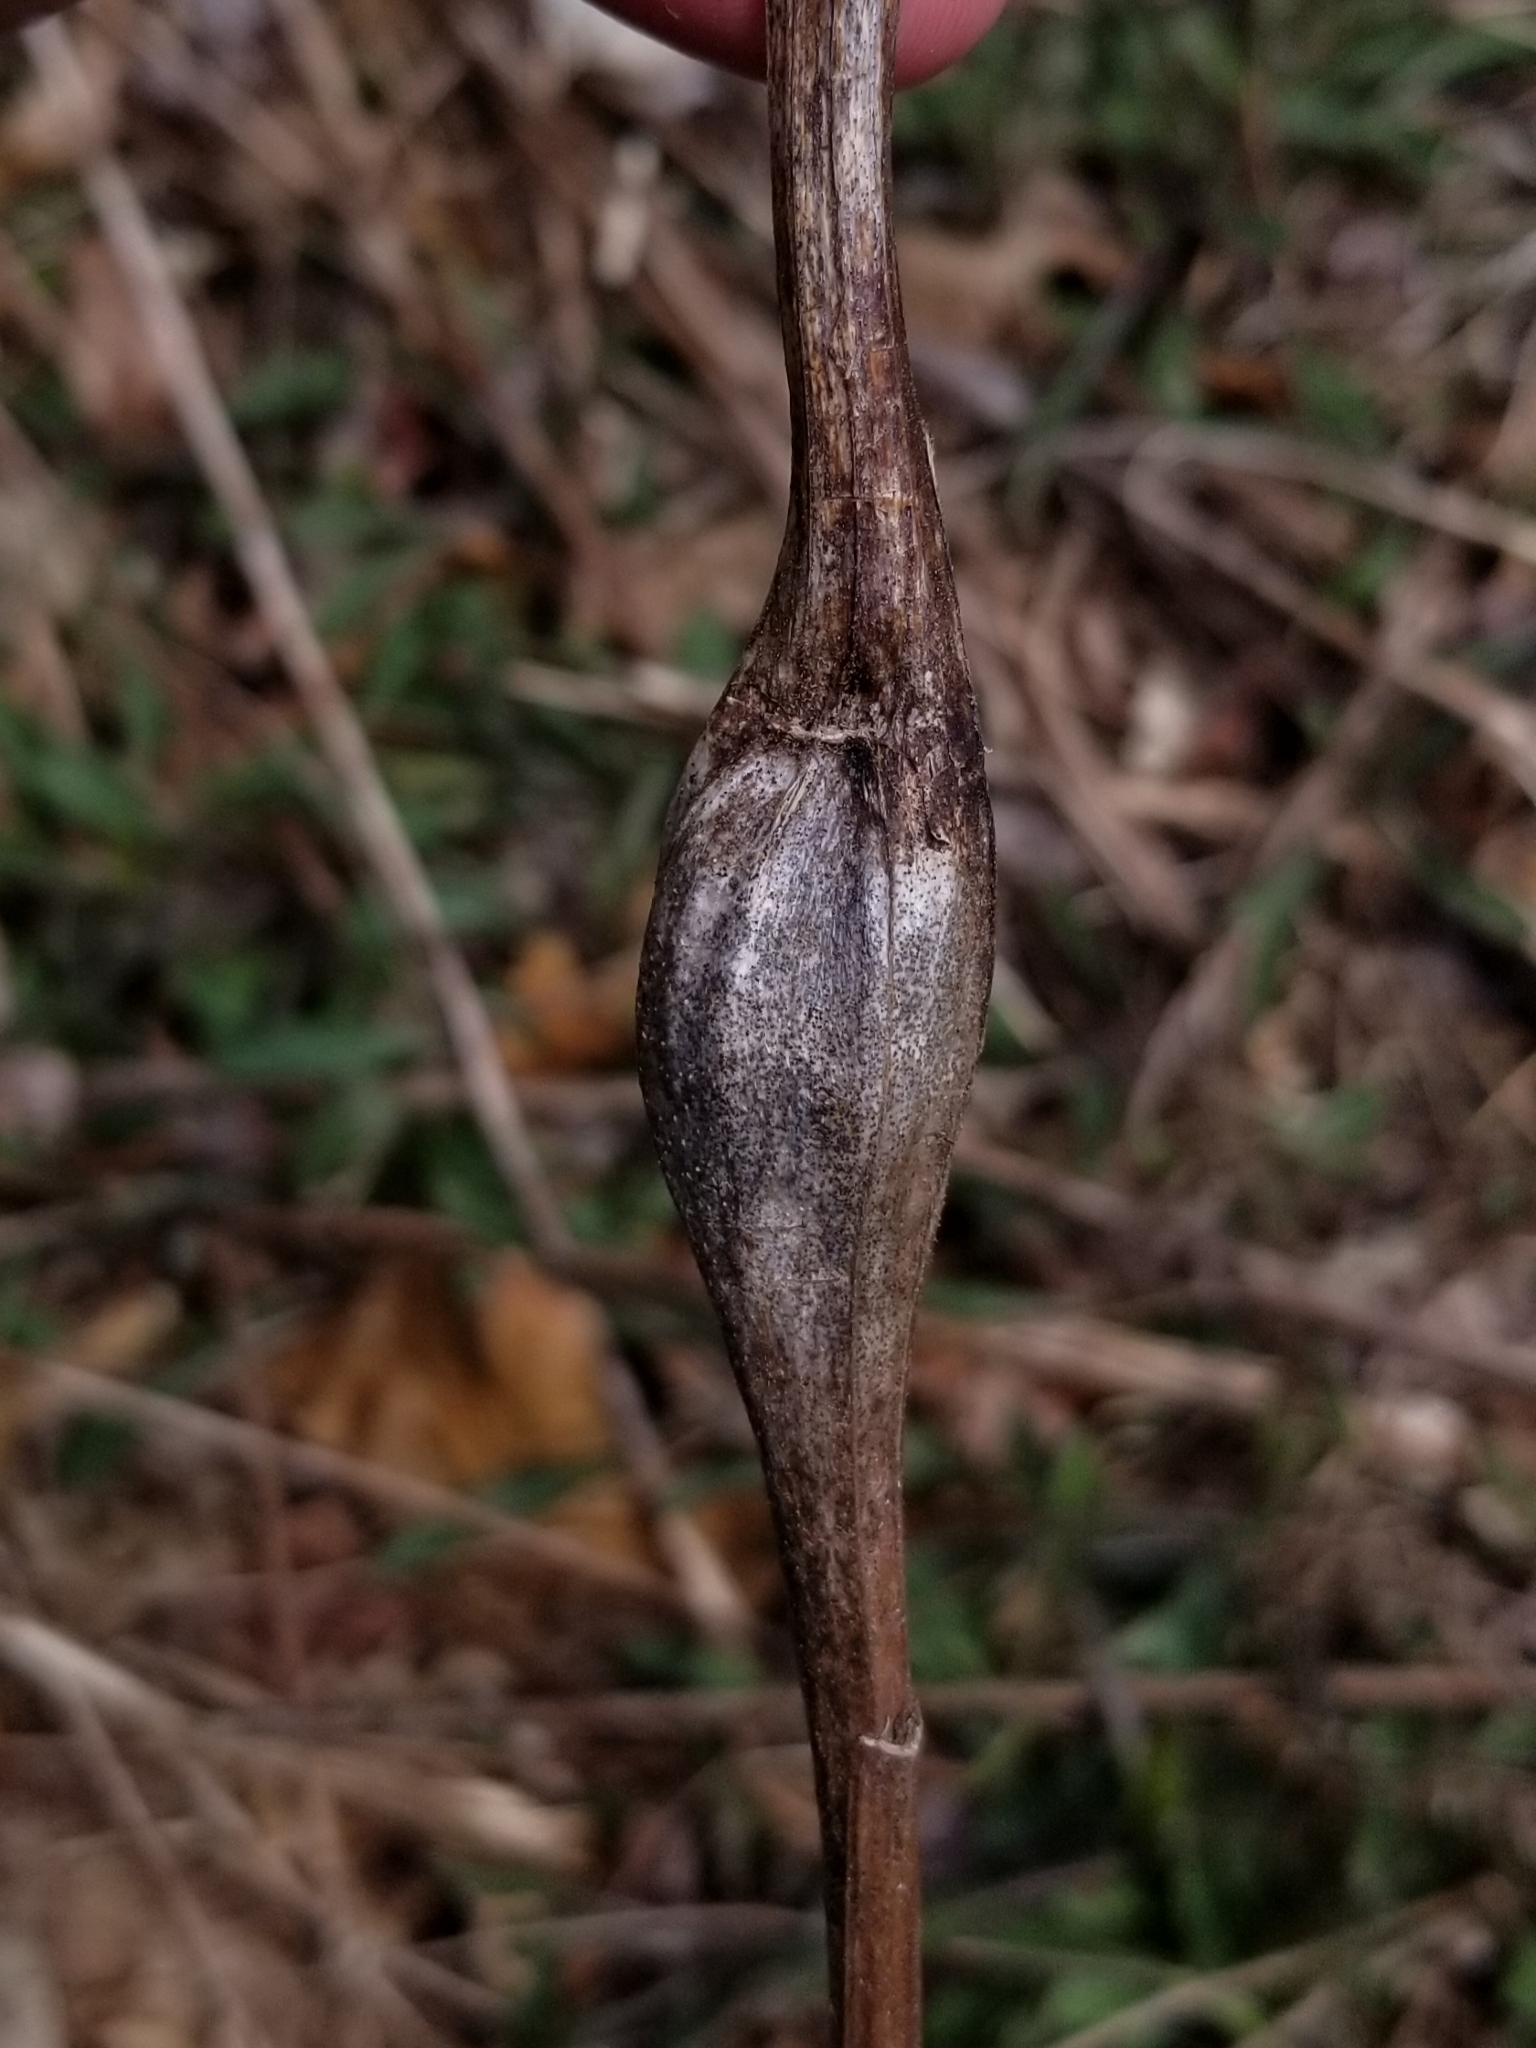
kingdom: Animalia
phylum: Arthropoda
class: Insecta
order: Lepidoptera
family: Gelechiidae
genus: Gnorimoschema
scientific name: Gnorimoschema gallaesolidaginis
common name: Goldenrod elliptical-gall moth
